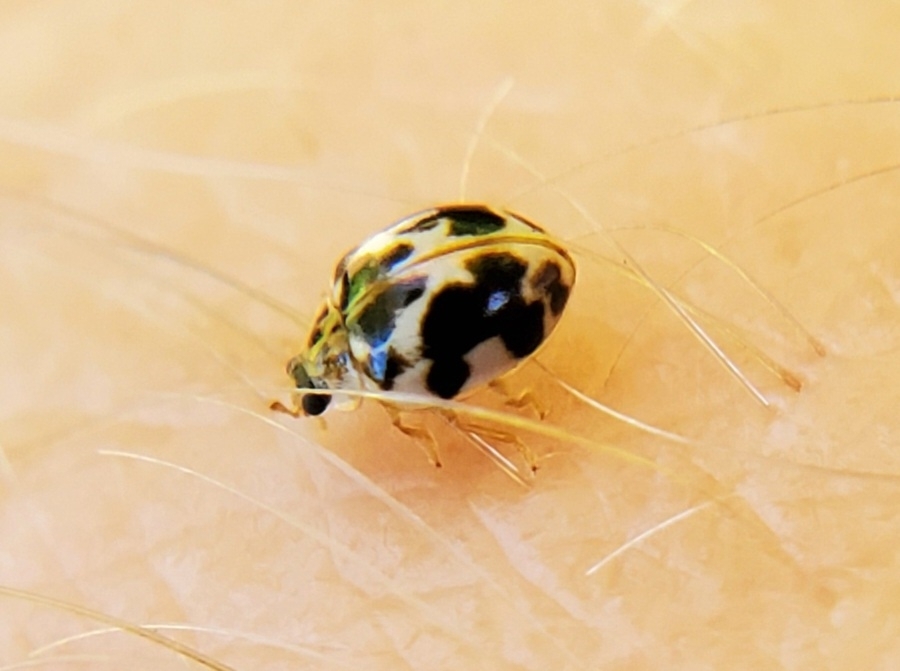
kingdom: Animalia
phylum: Arthropoda
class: Insecta
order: Coleoptera
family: Coccinellidae
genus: Psyllobora
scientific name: Psyllobora vigintimaculata
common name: Ladybird beetle
